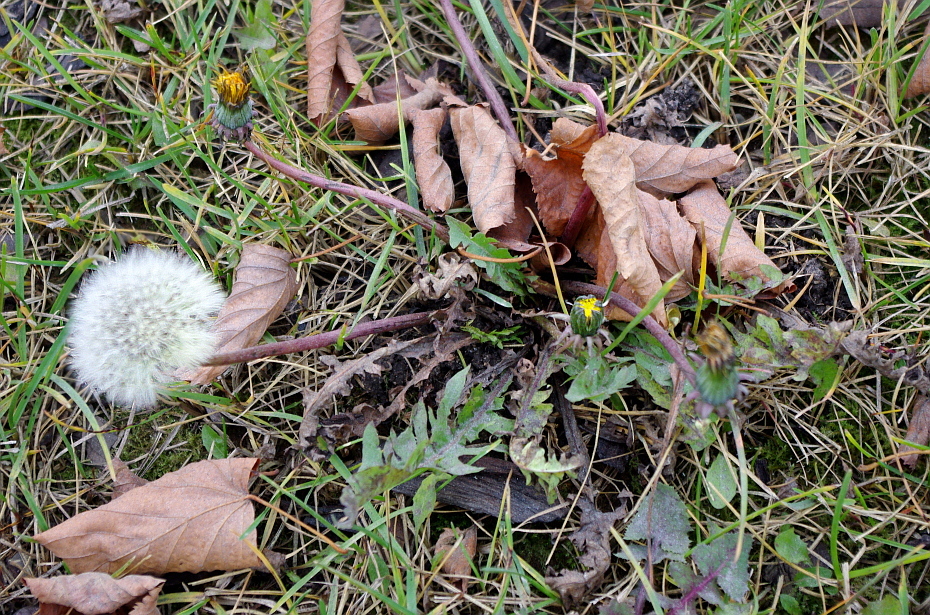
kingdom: Plantae
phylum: Tracheophyta
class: Magnoliopsida
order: Asterales
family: Asteraceae
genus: Taraxacum
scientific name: Taraxacum officinale
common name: Common dandelion
